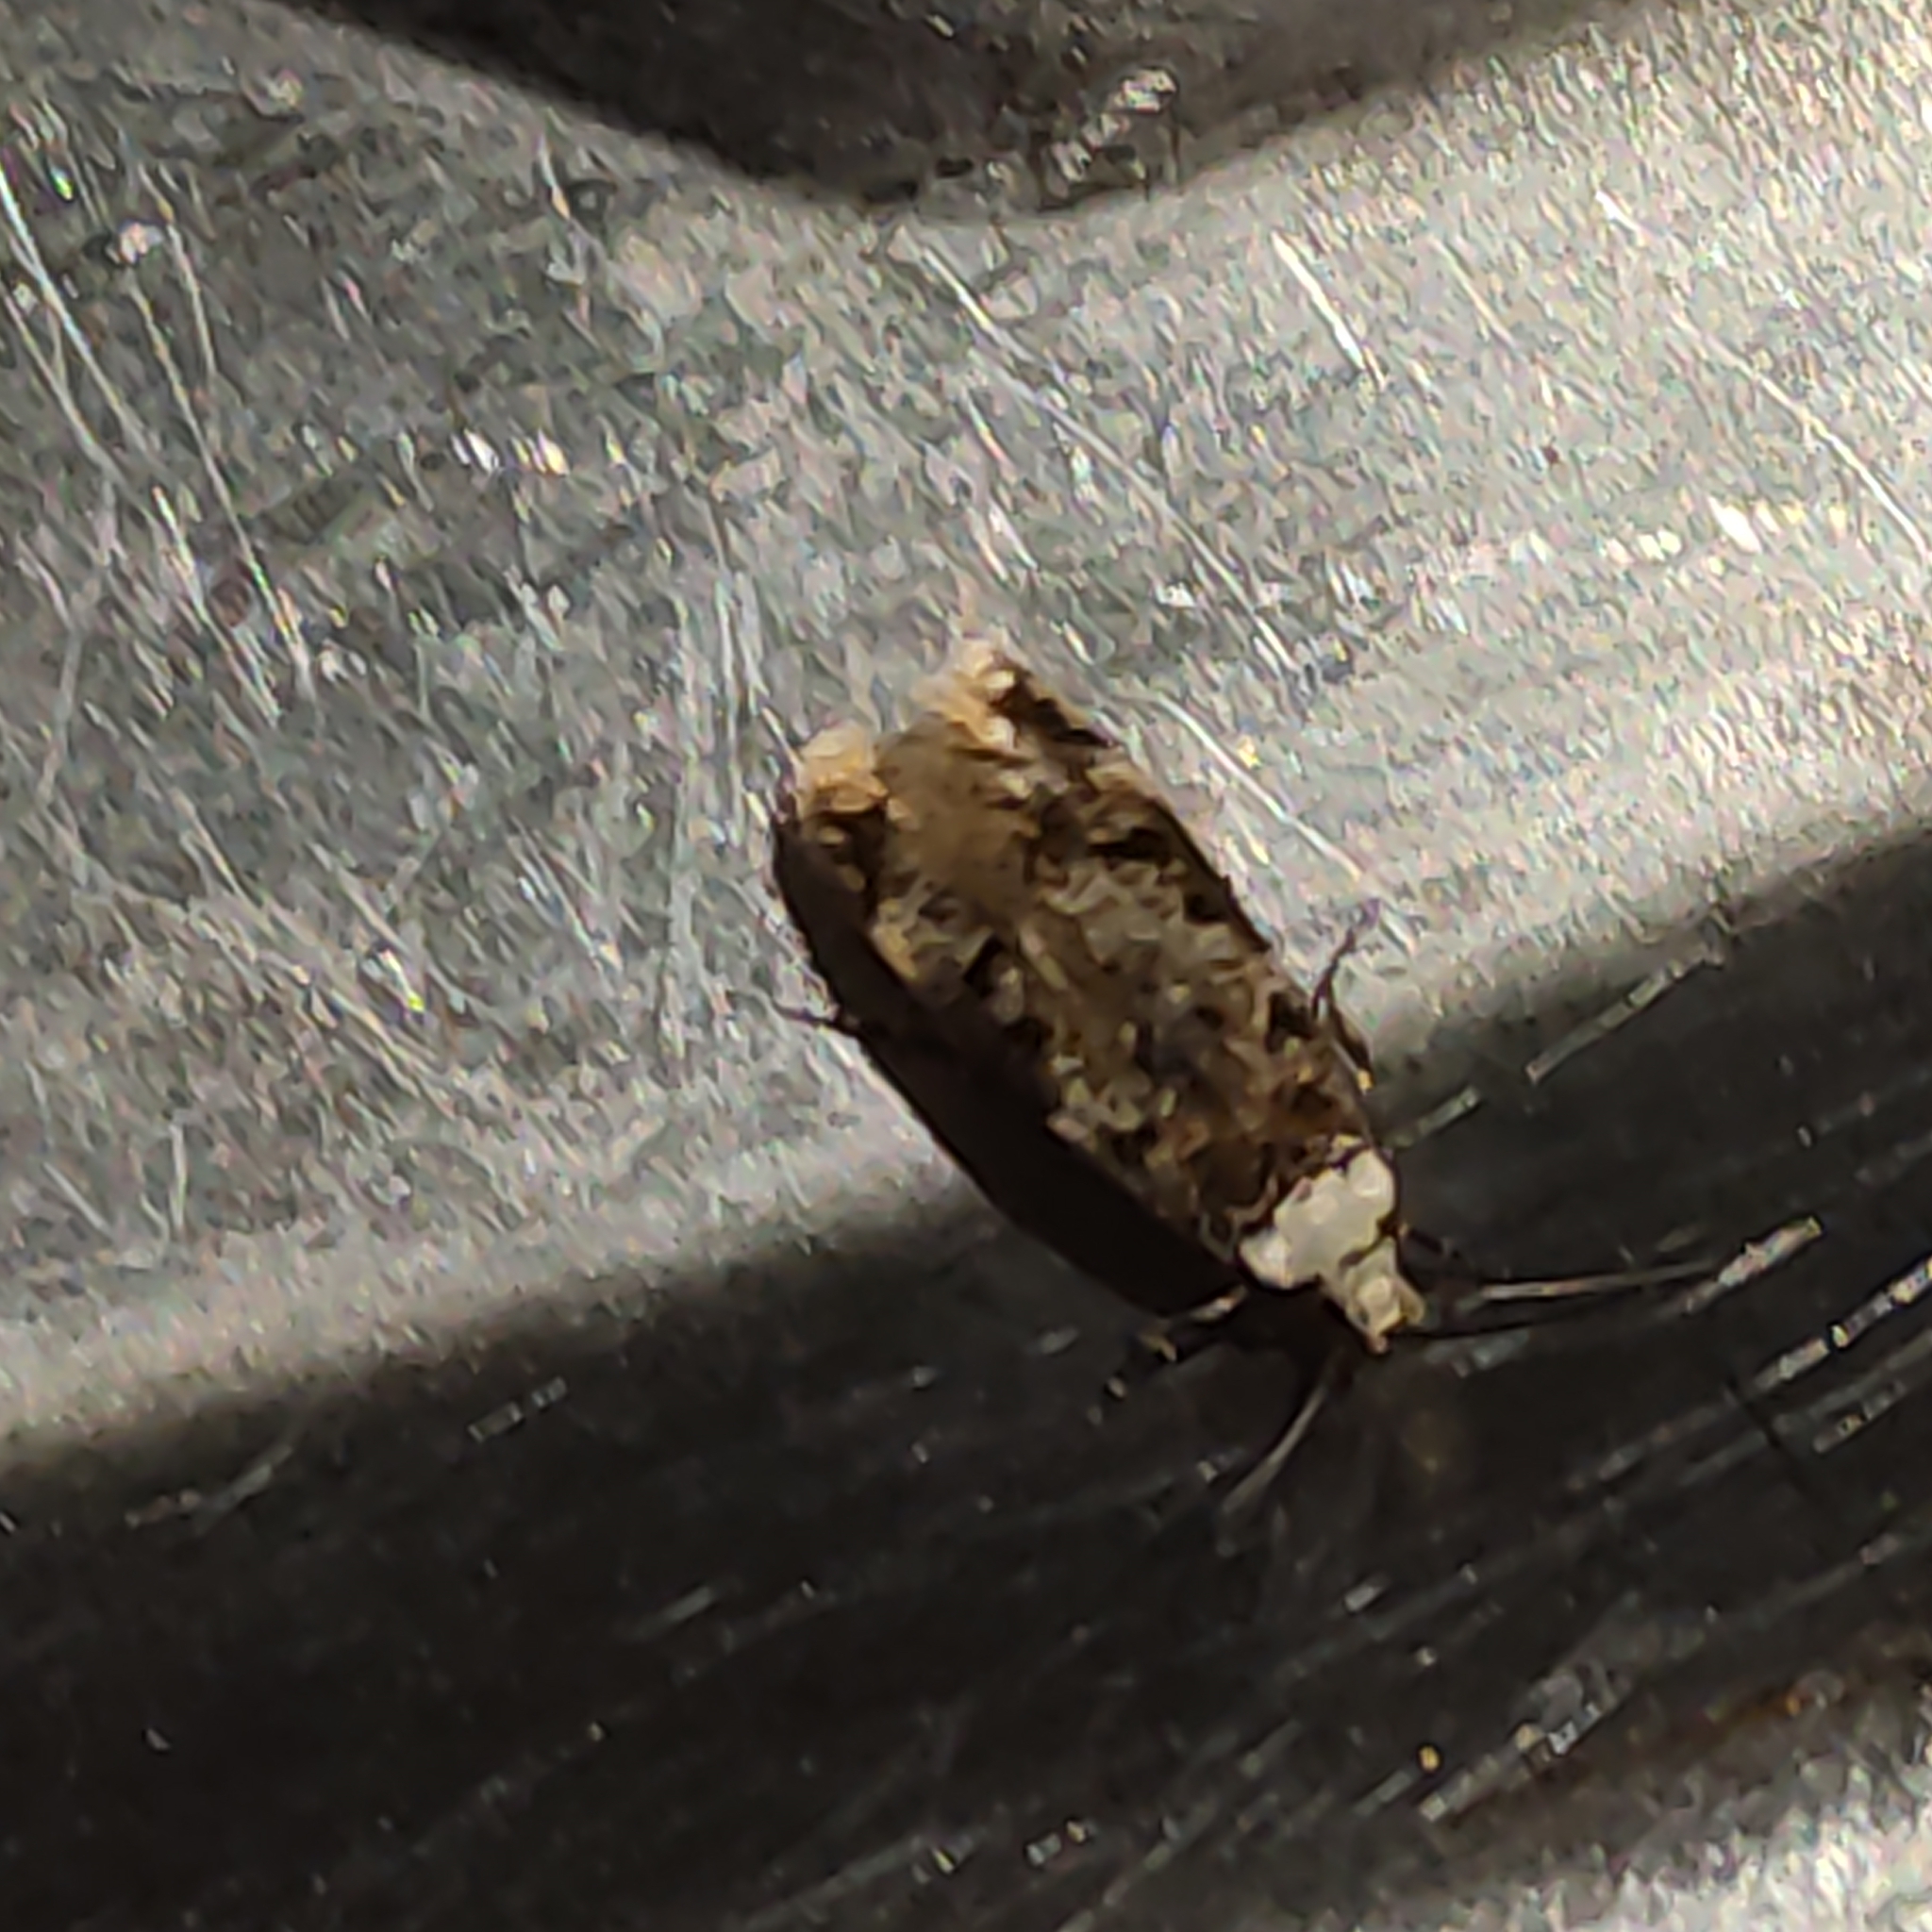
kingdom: Animalia
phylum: Arthropoda
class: Insecta
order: Lepidoptera
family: Oecophoridae
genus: Endrosis
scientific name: Endrosis sarcitrella
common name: White-shouldered house moth
